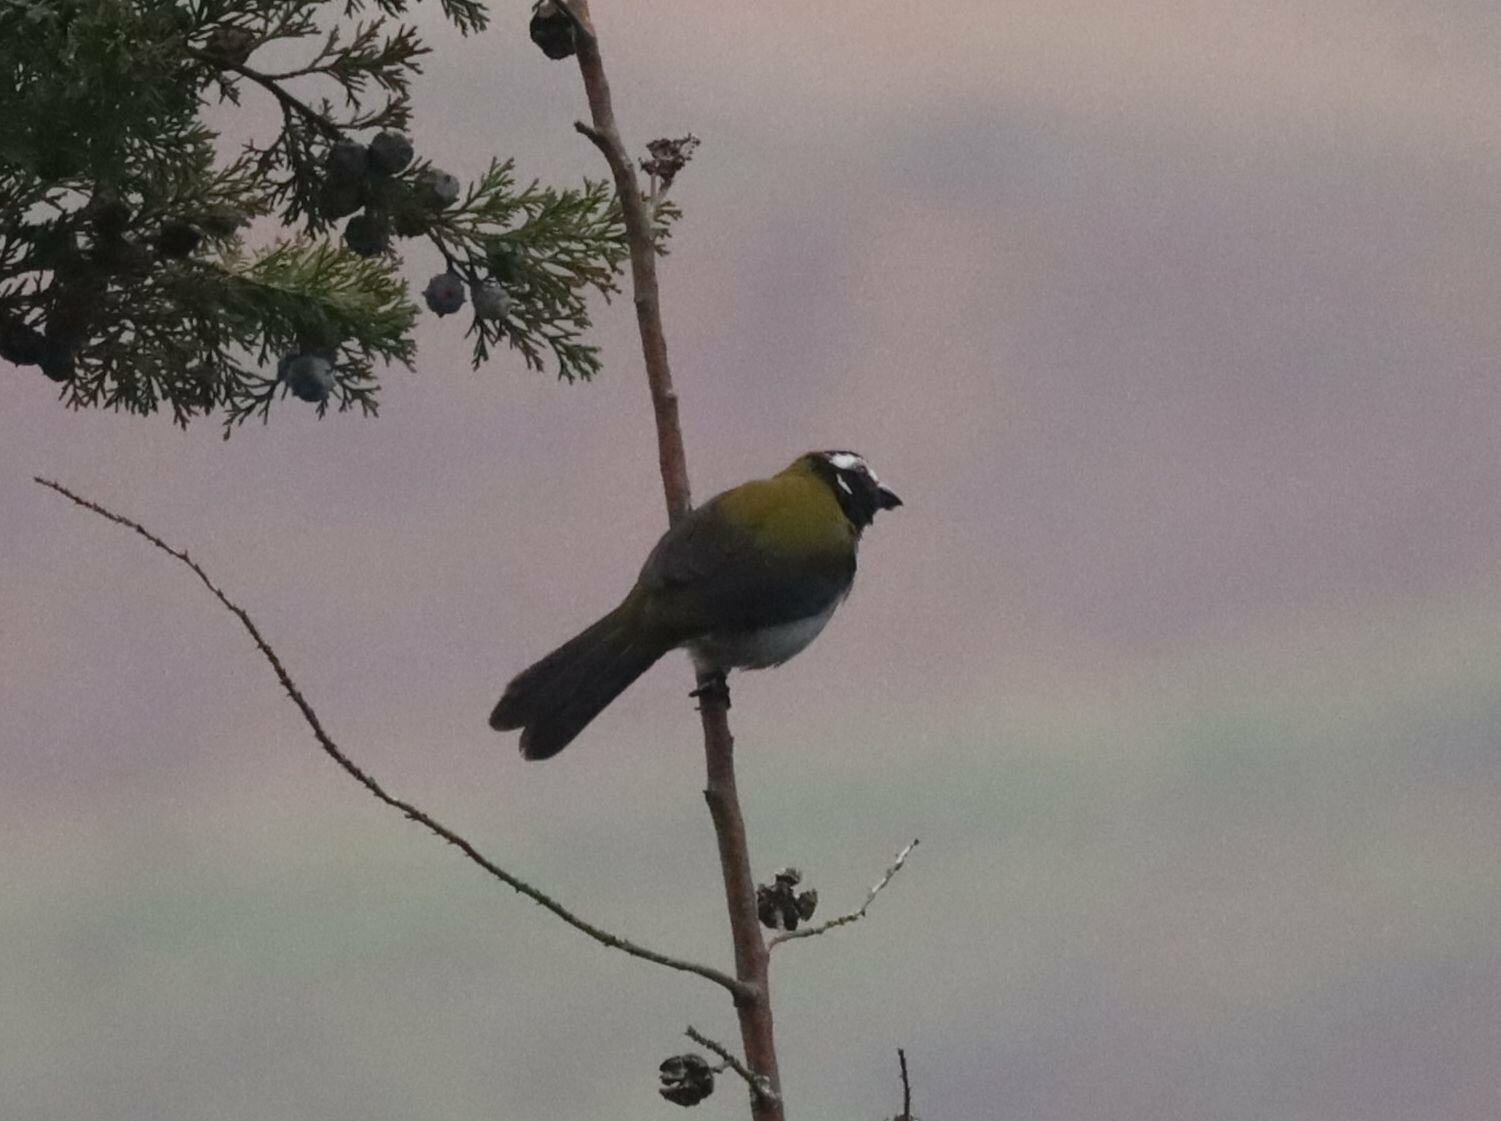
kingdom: Animalia
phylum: Chordata
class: Aves
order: Passeriformes
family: Thraupidae
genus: Saltator
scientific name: Saltator atripennis
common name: Black-winged saltator
